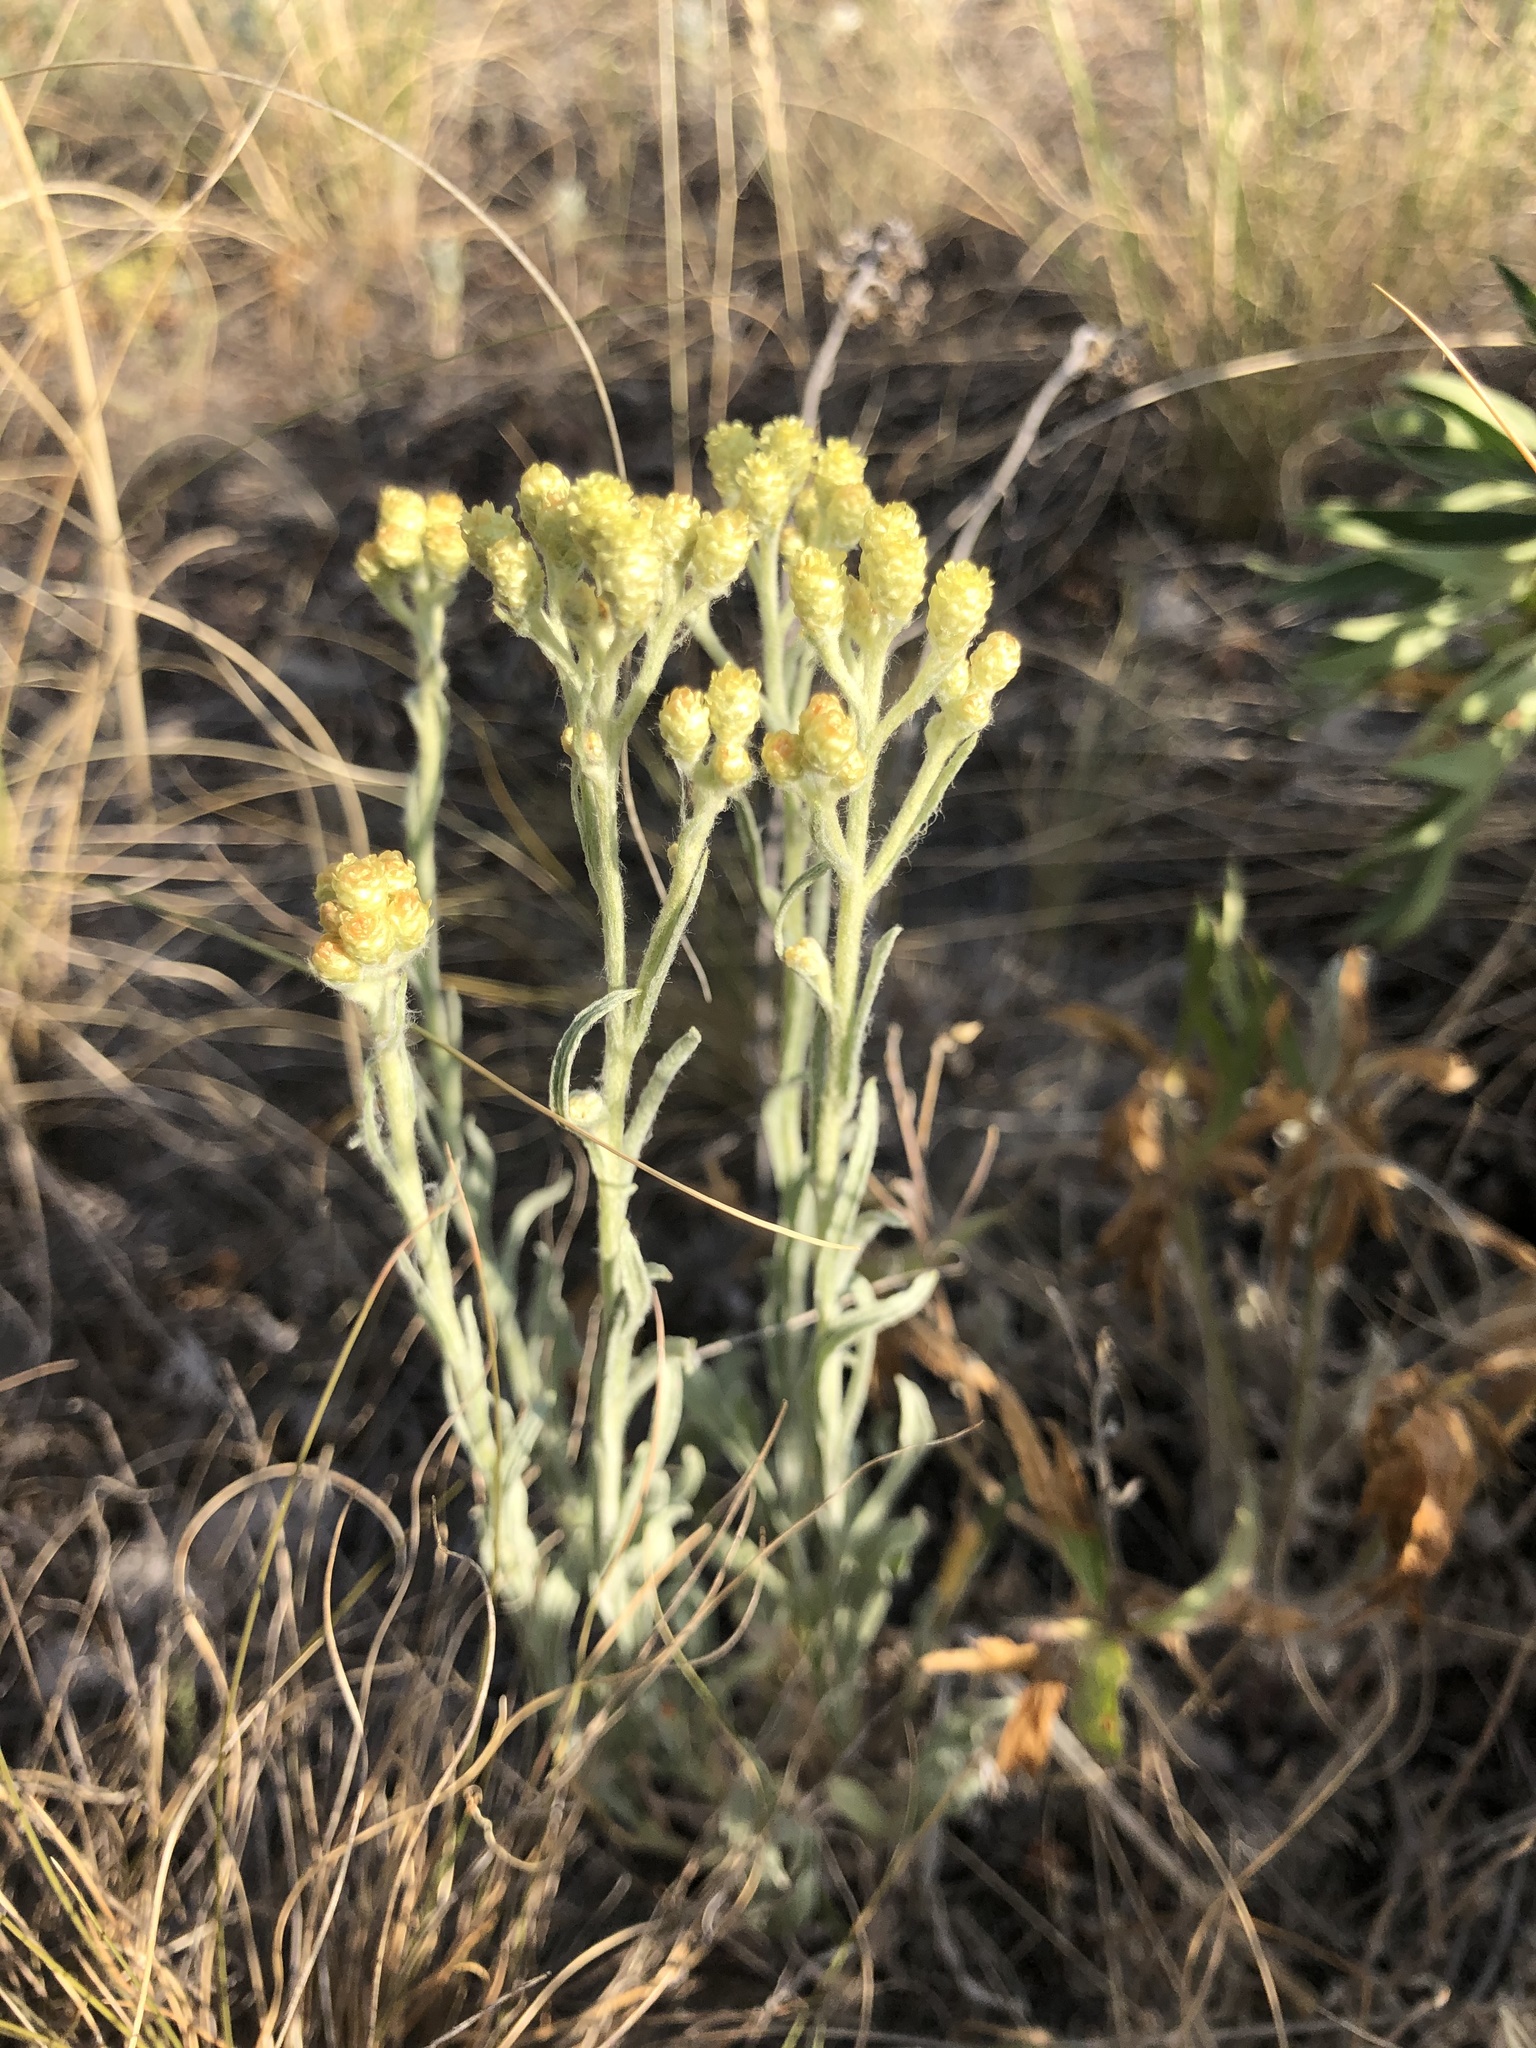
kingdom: Plantae
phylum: Tracheophyta
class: Magnoliopsida
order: Asterales
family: Asteraceae
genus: Helichrysum
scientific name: Helichrysum arenarium
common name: Strawflower
